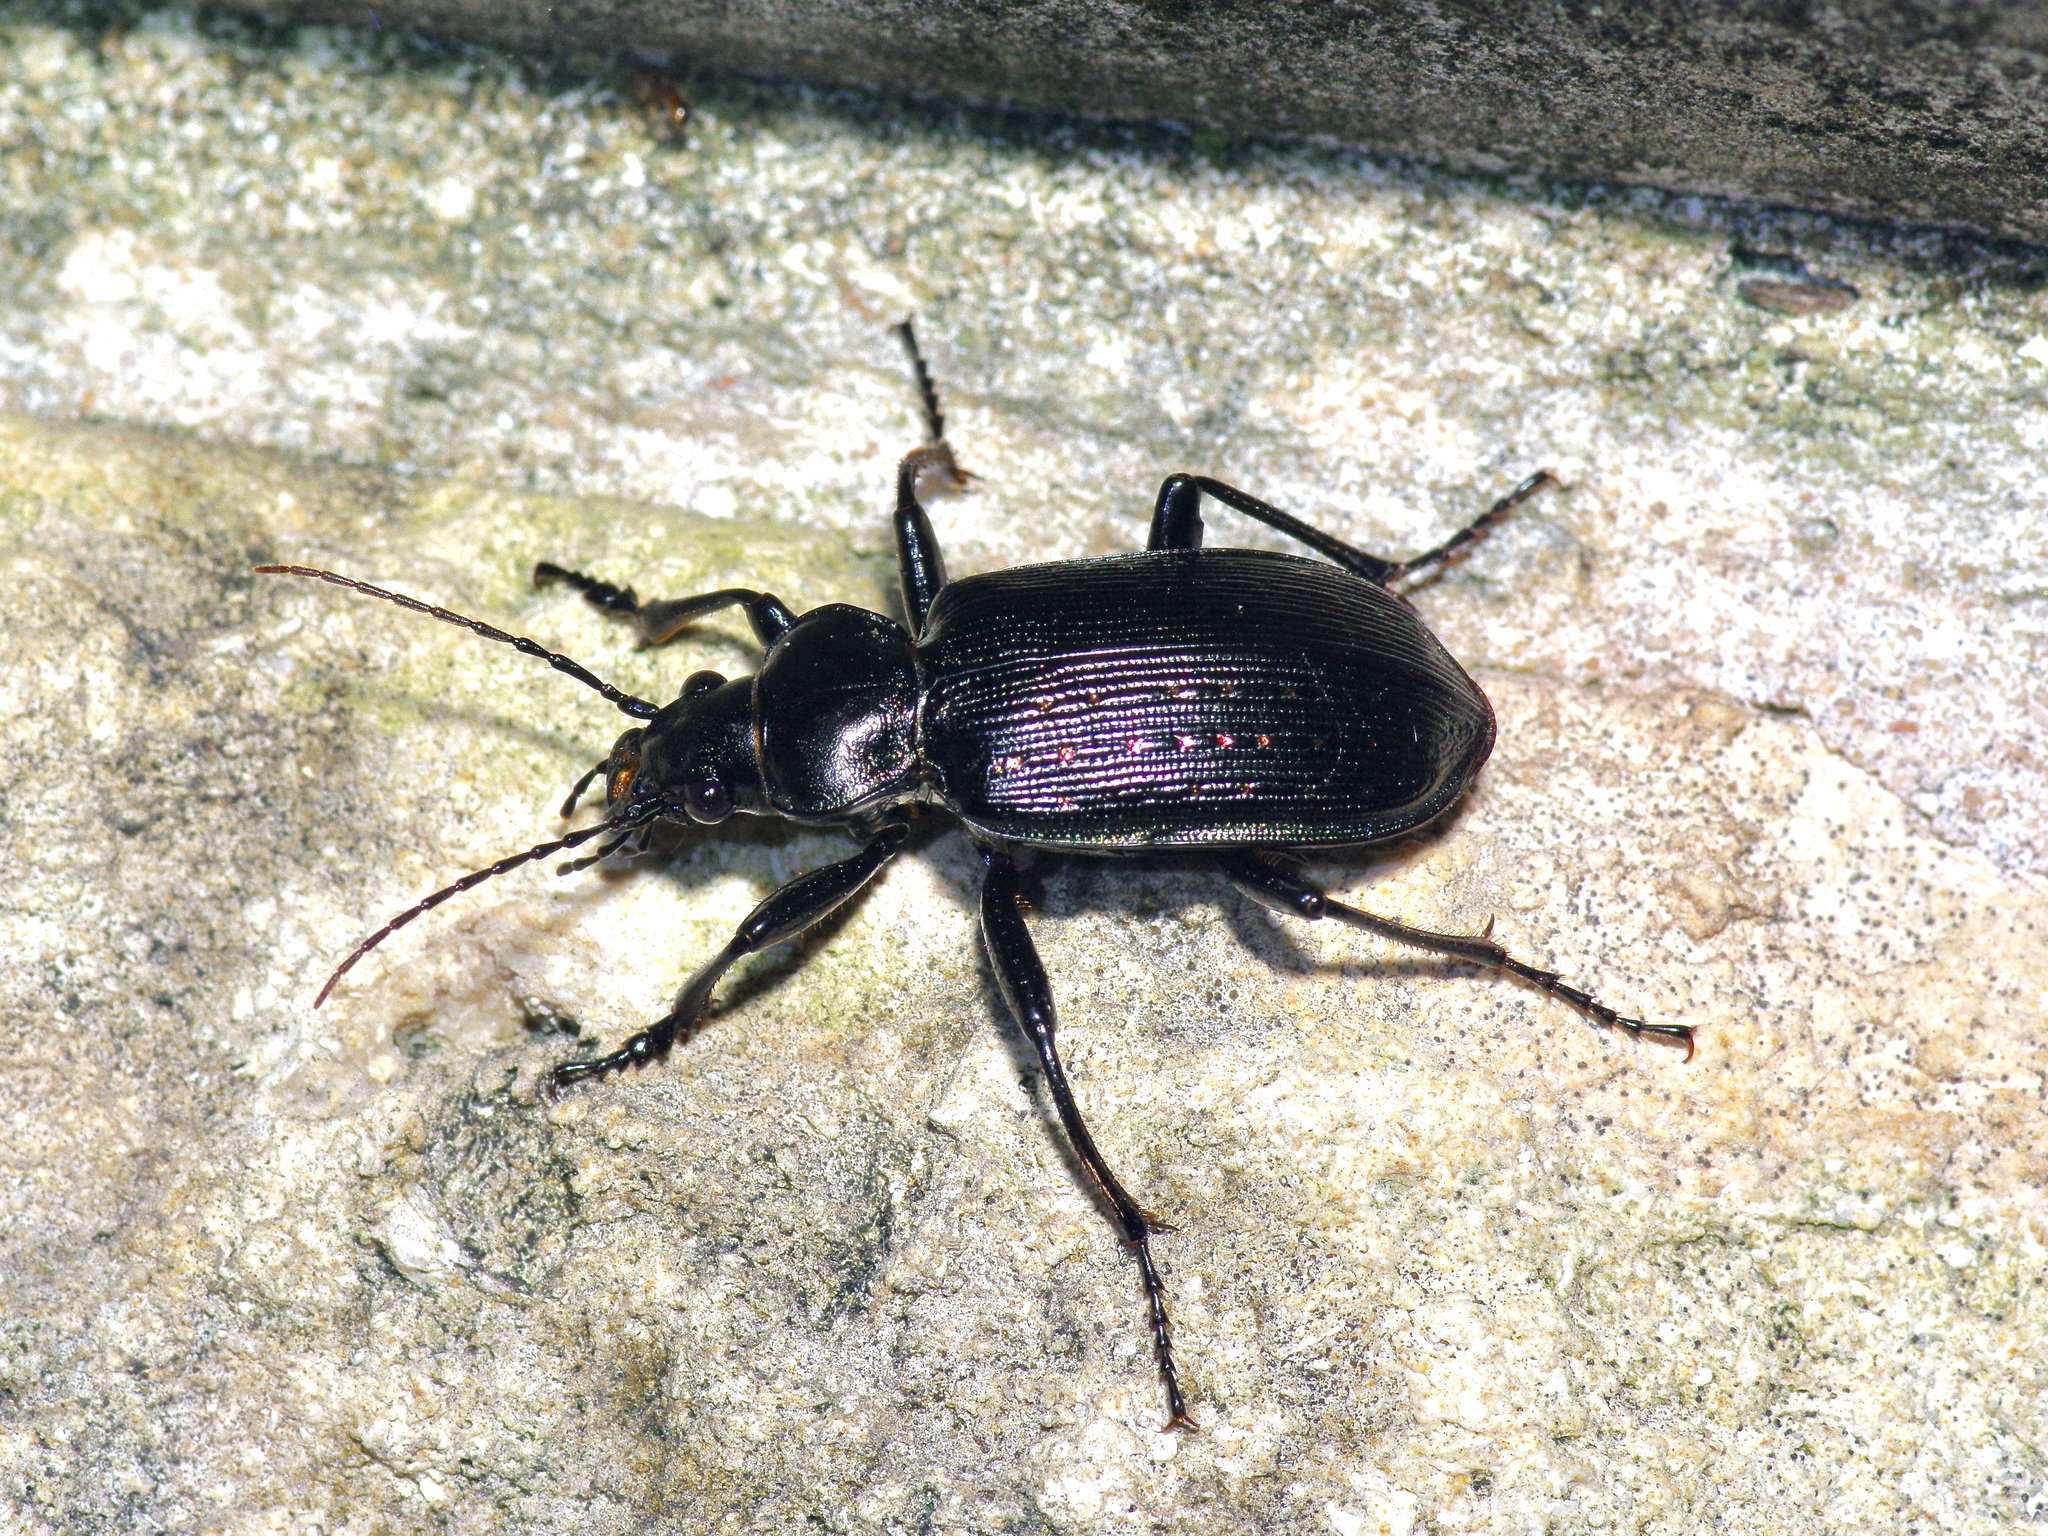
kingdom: Animalia
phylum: Arthropoda
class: Insecta
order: Coleoptera
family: Carabidae
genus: Calosoma
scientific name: Calosoma sayi
